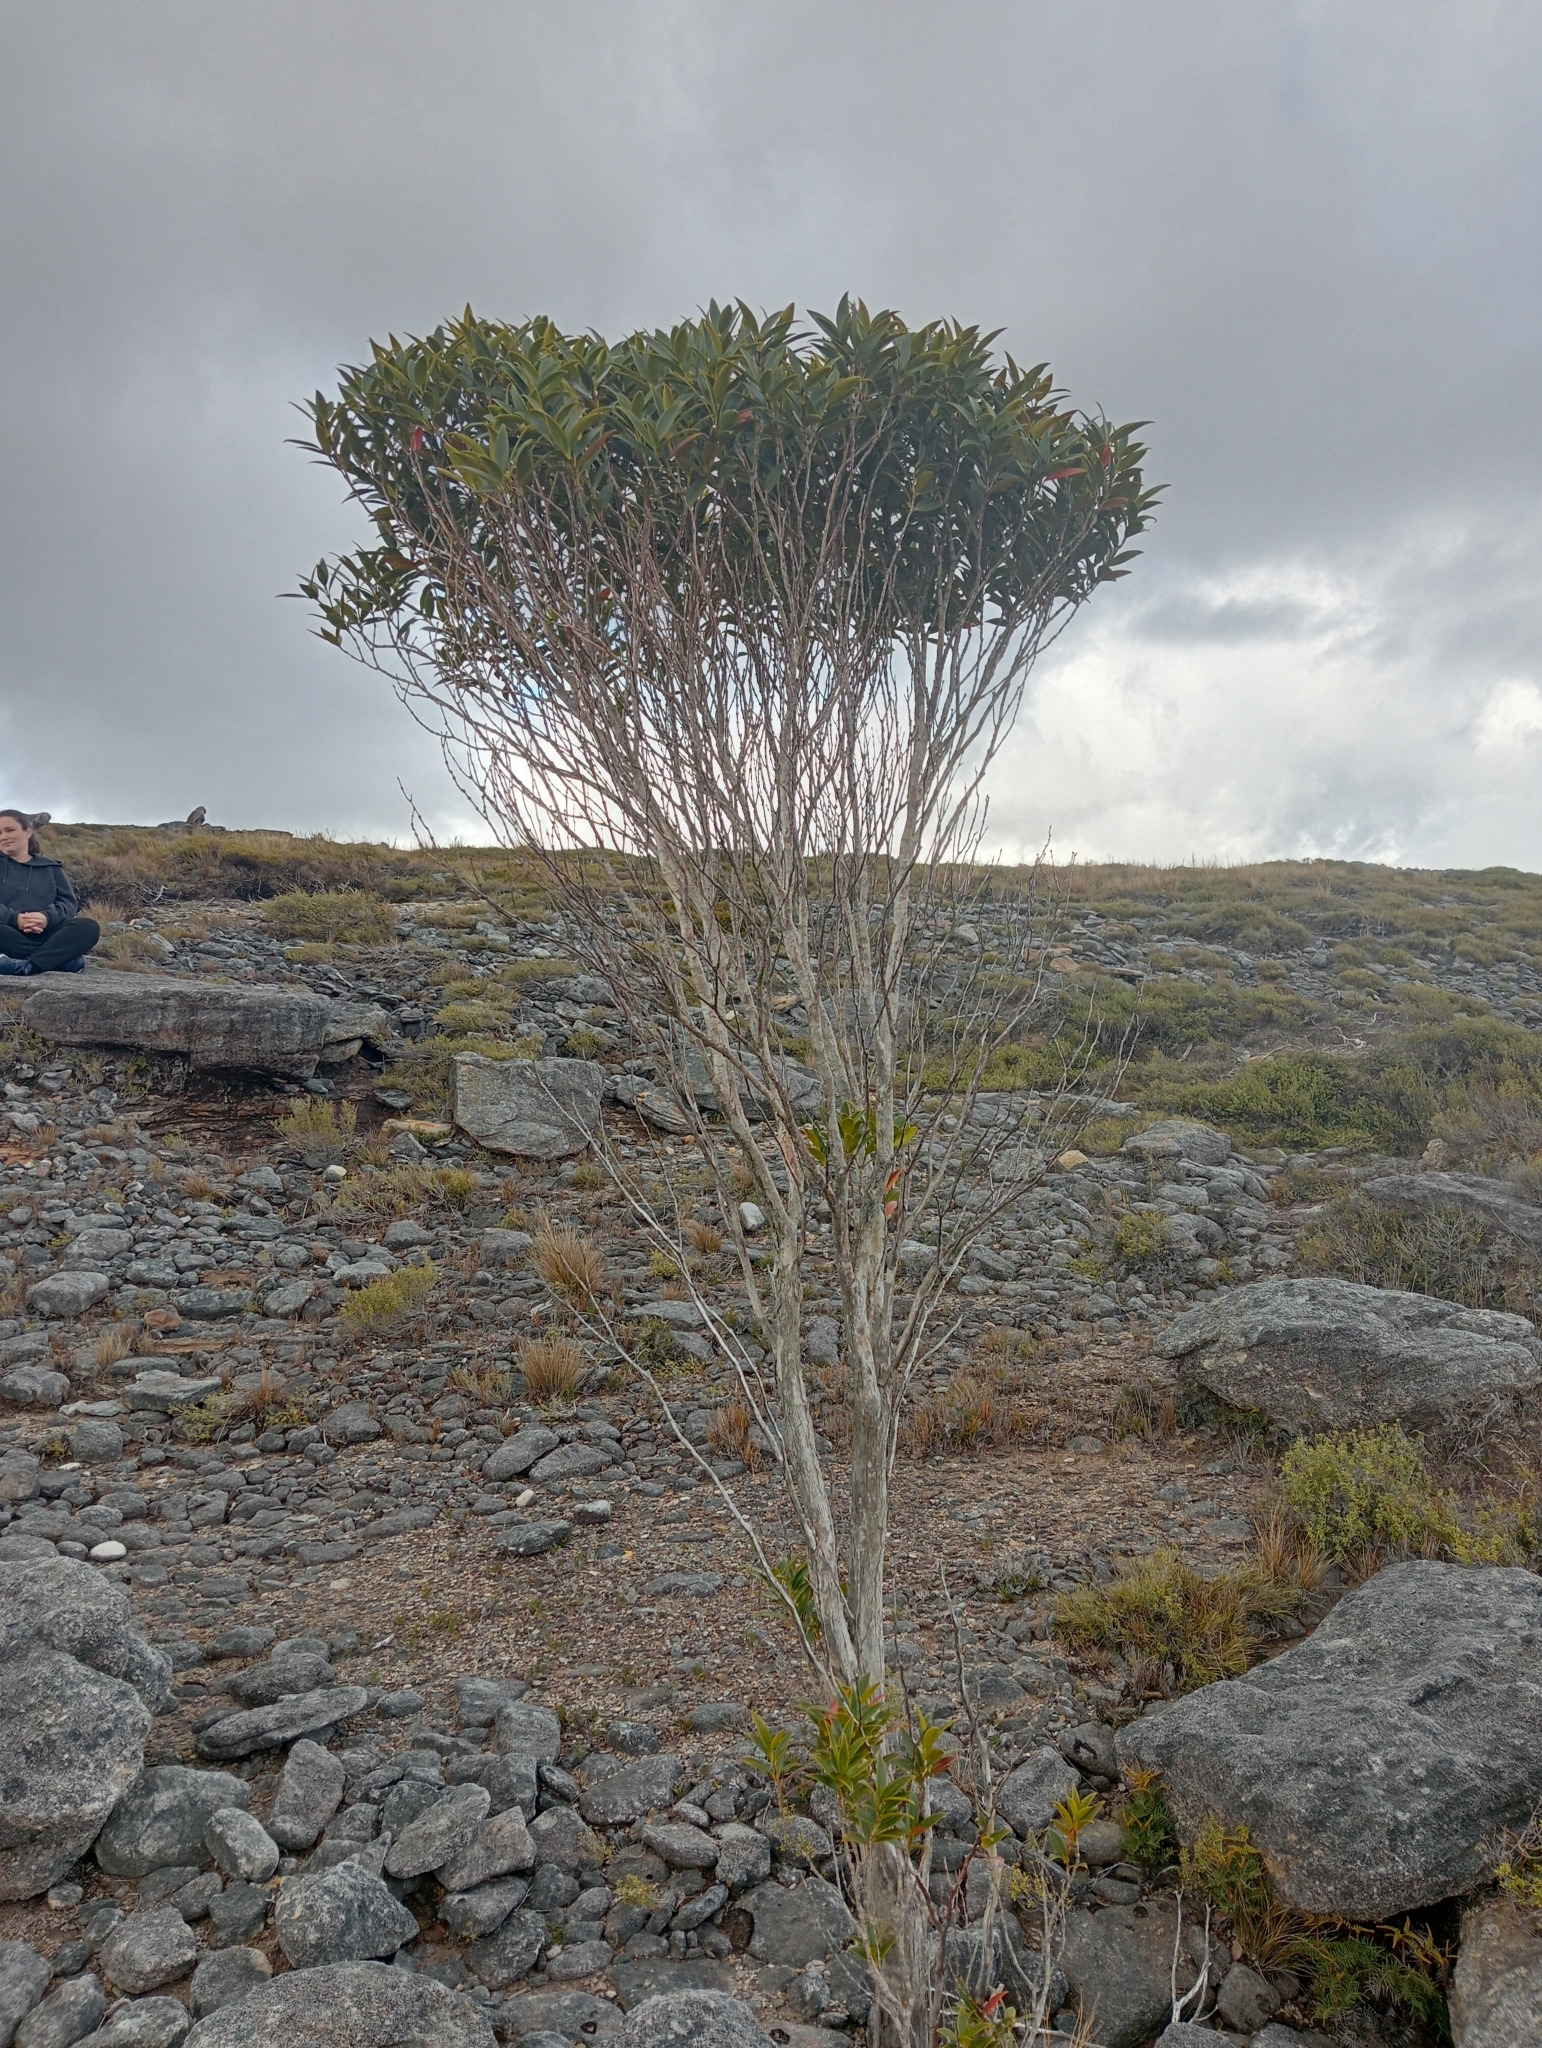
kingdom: Plantae
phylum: Tracheophyta
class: Magnoliopsida
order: Myrtales
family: Myrtaceae
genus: Metrosideros
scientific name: Metrosideros umbellata
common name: Southern rata
